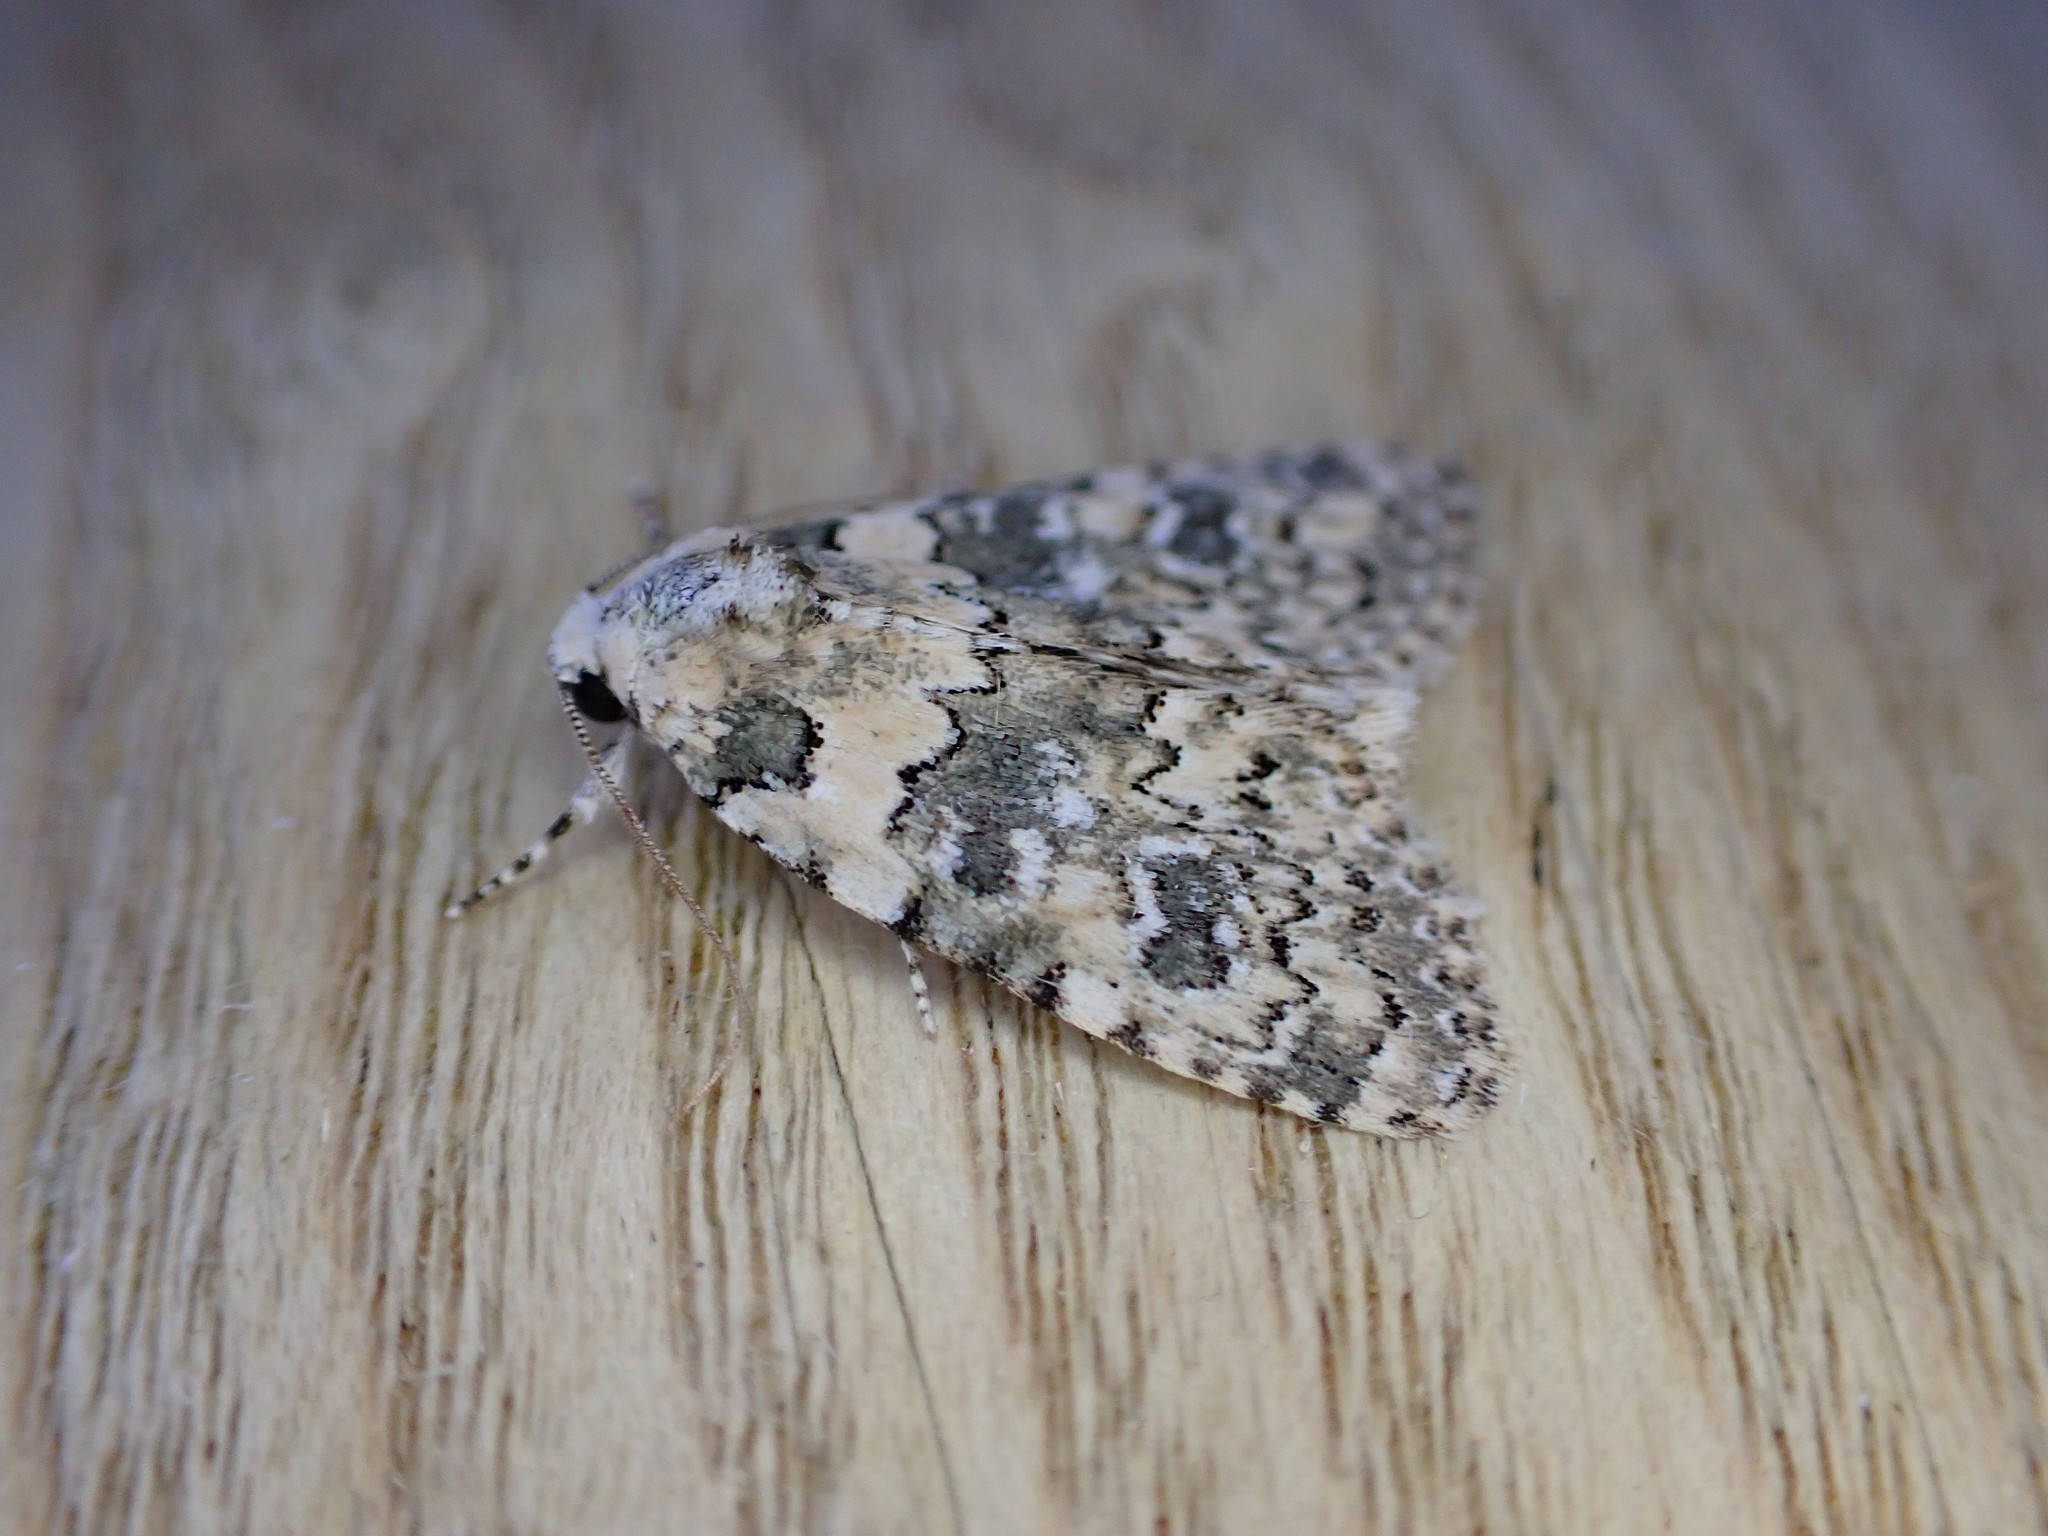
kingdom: Animalia
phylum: Arthropoda
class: Insecta
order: Lepidoptera
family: Noctuidae
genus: Bryophila
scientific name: Bryophila domestica
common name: Marbled beauty
